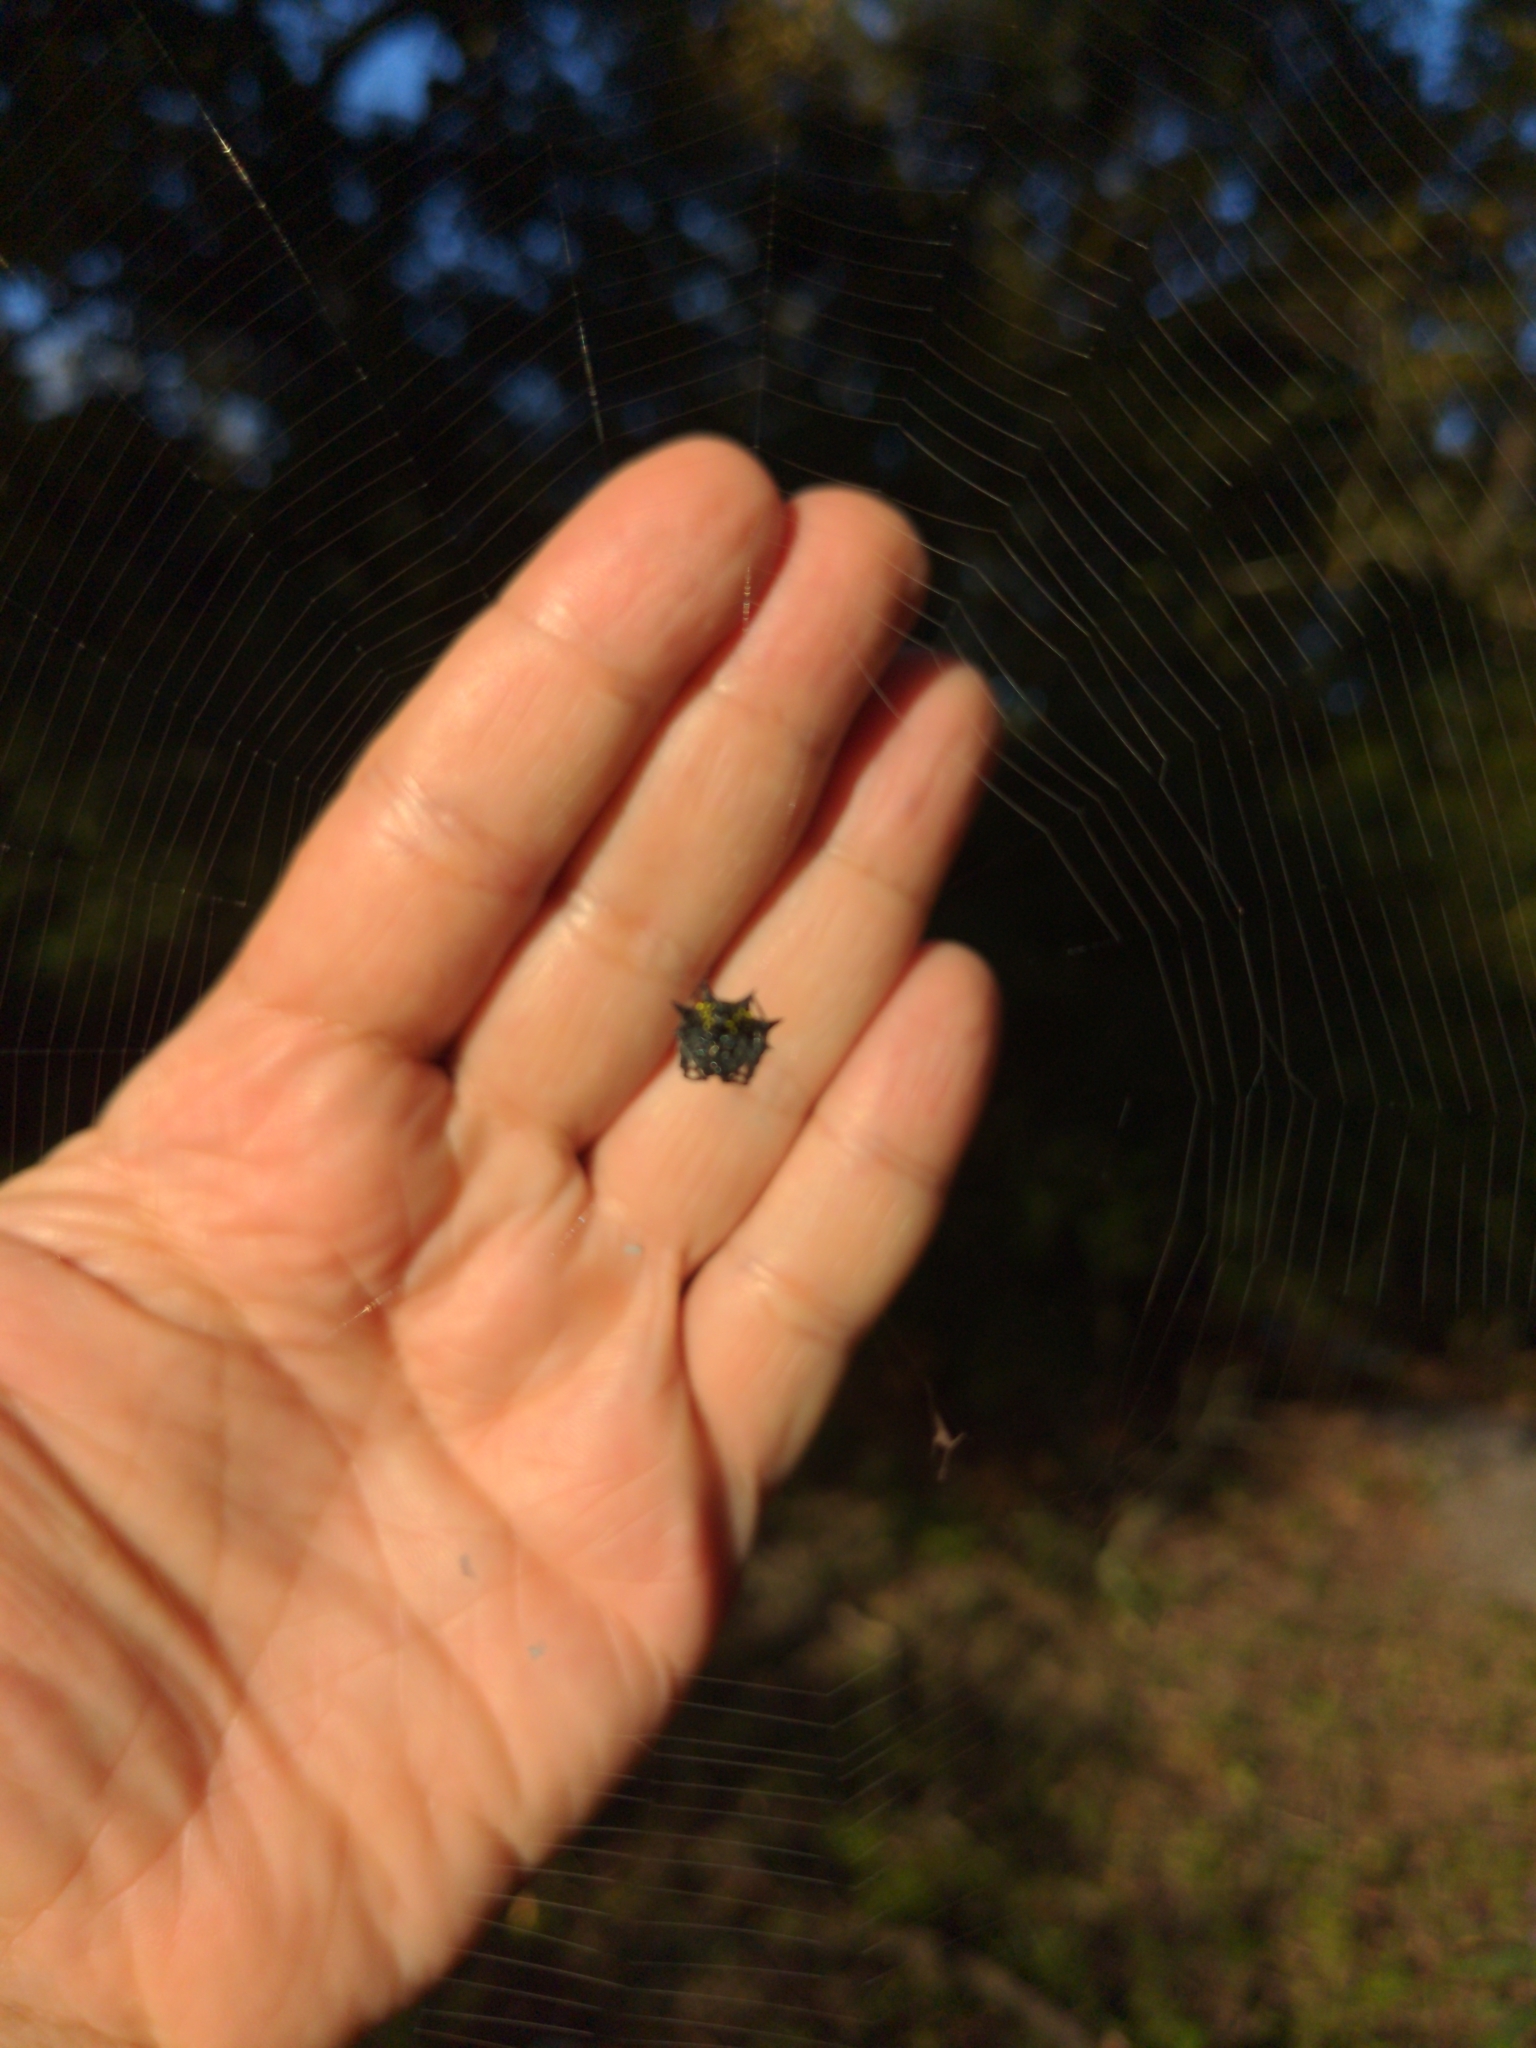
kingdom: Animalia
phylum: Arthropoda
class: Arachnida
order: Araneae
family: Araneidae
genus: Gasteracantha
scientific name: Gasteracantha cancriformis
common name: Orb weavers
